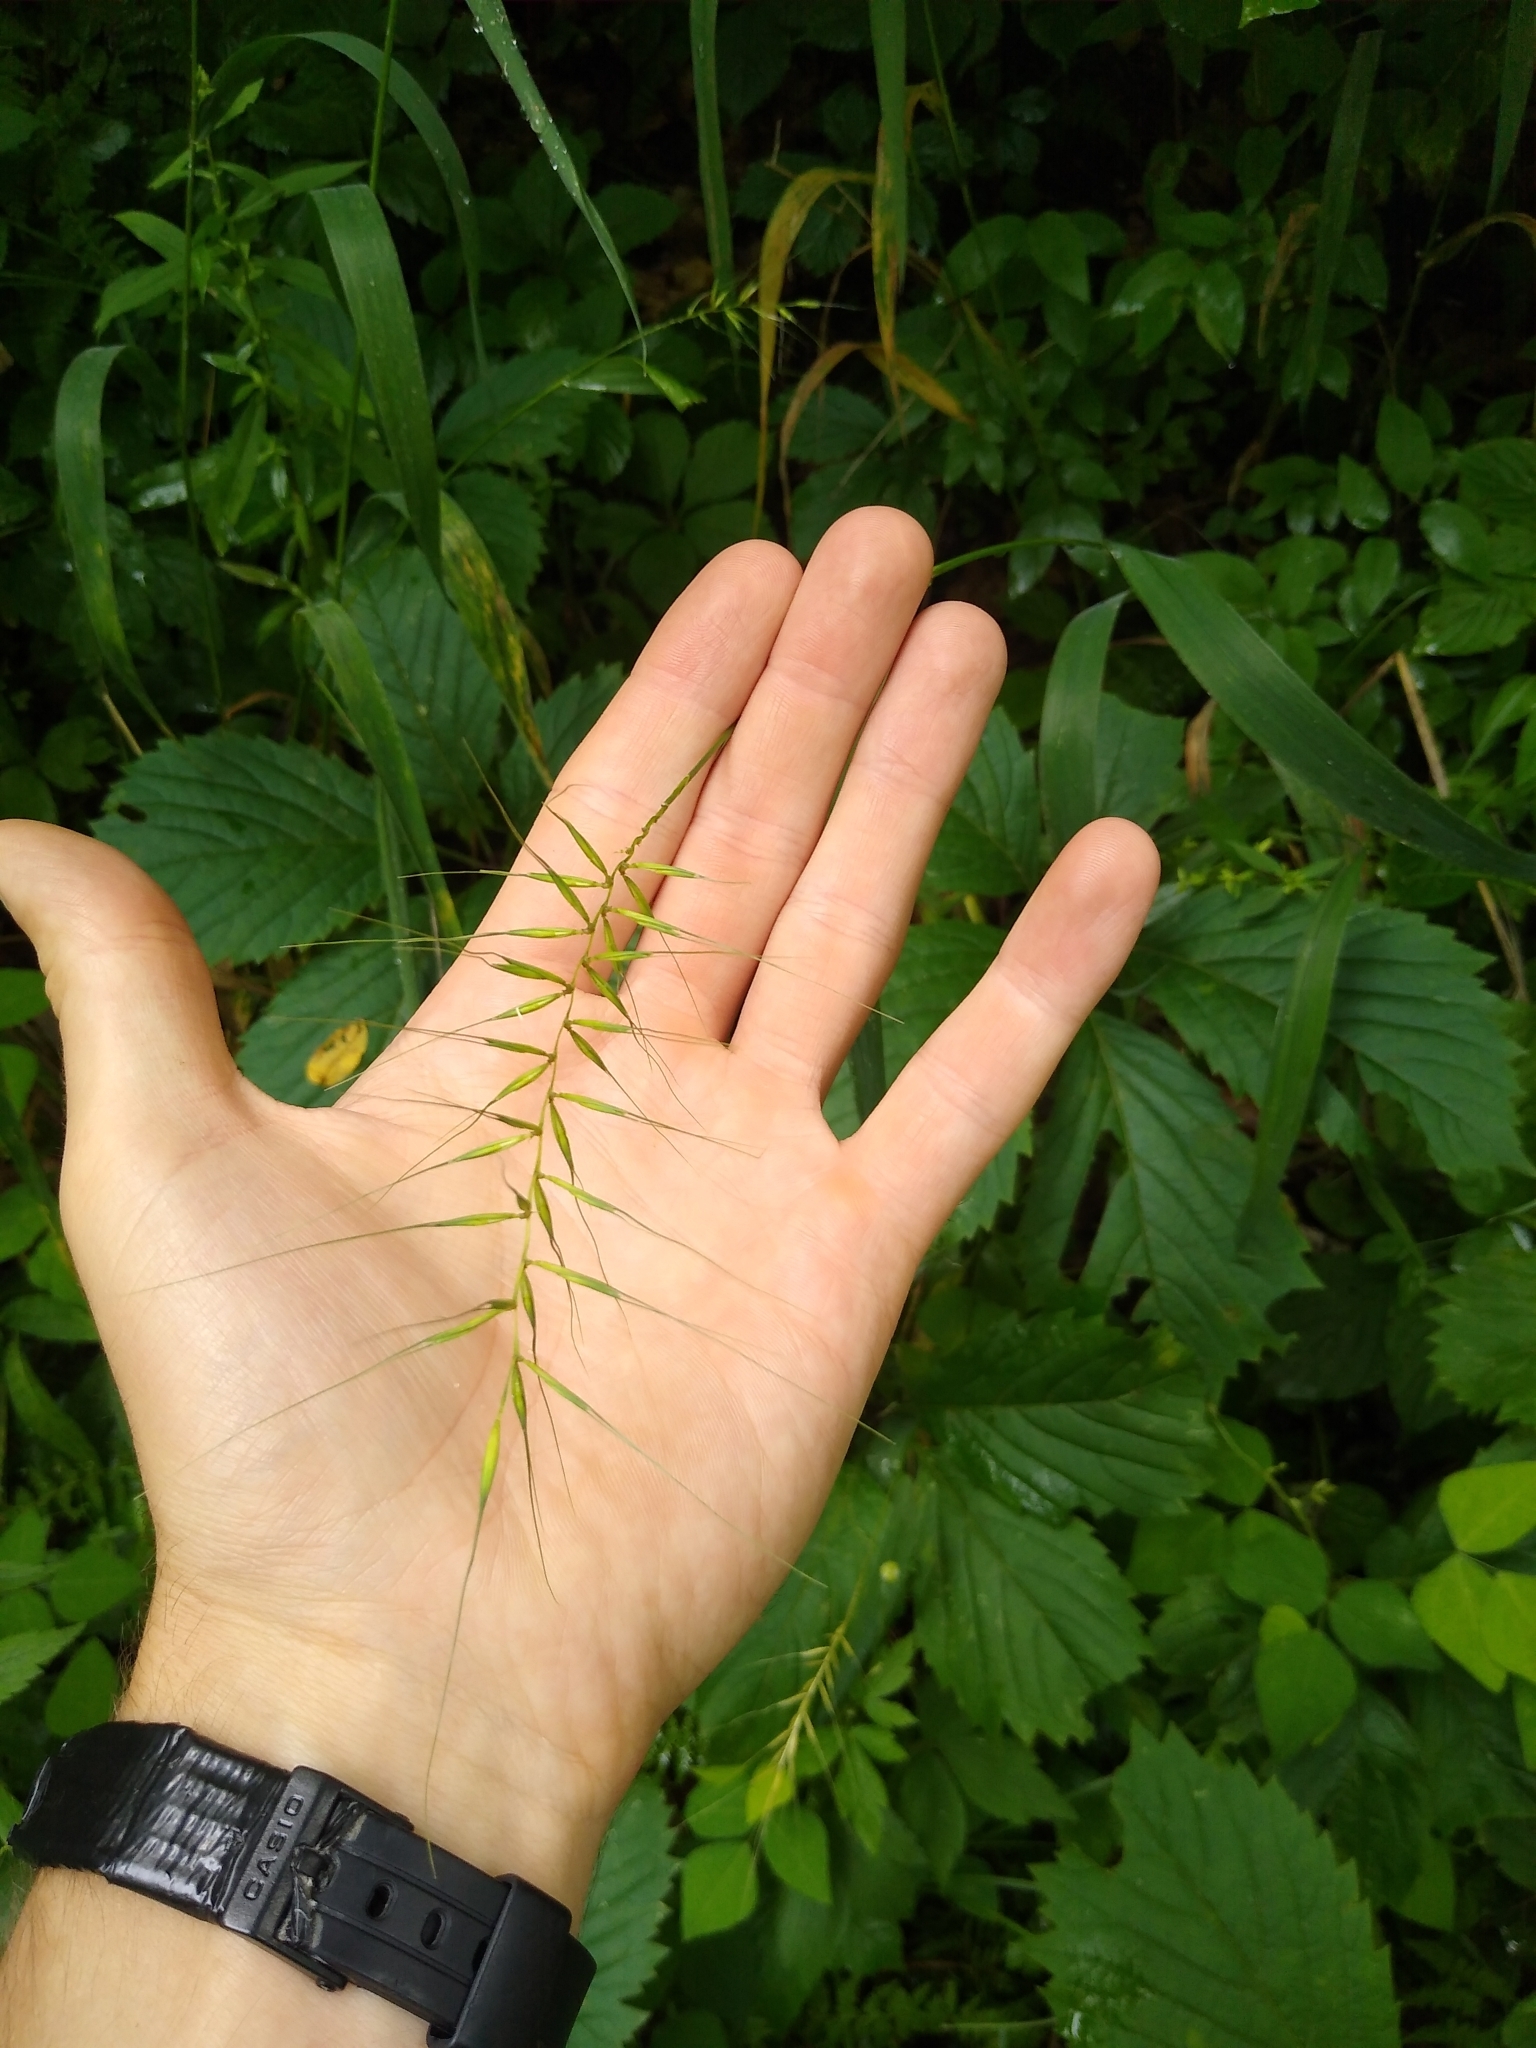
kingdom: Plantae
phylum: Tracheophyta
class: Liliopsida
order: Poales
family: Poaceae
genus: Elymus
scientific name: Elymus hystrix
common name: Bottlebrush grass
